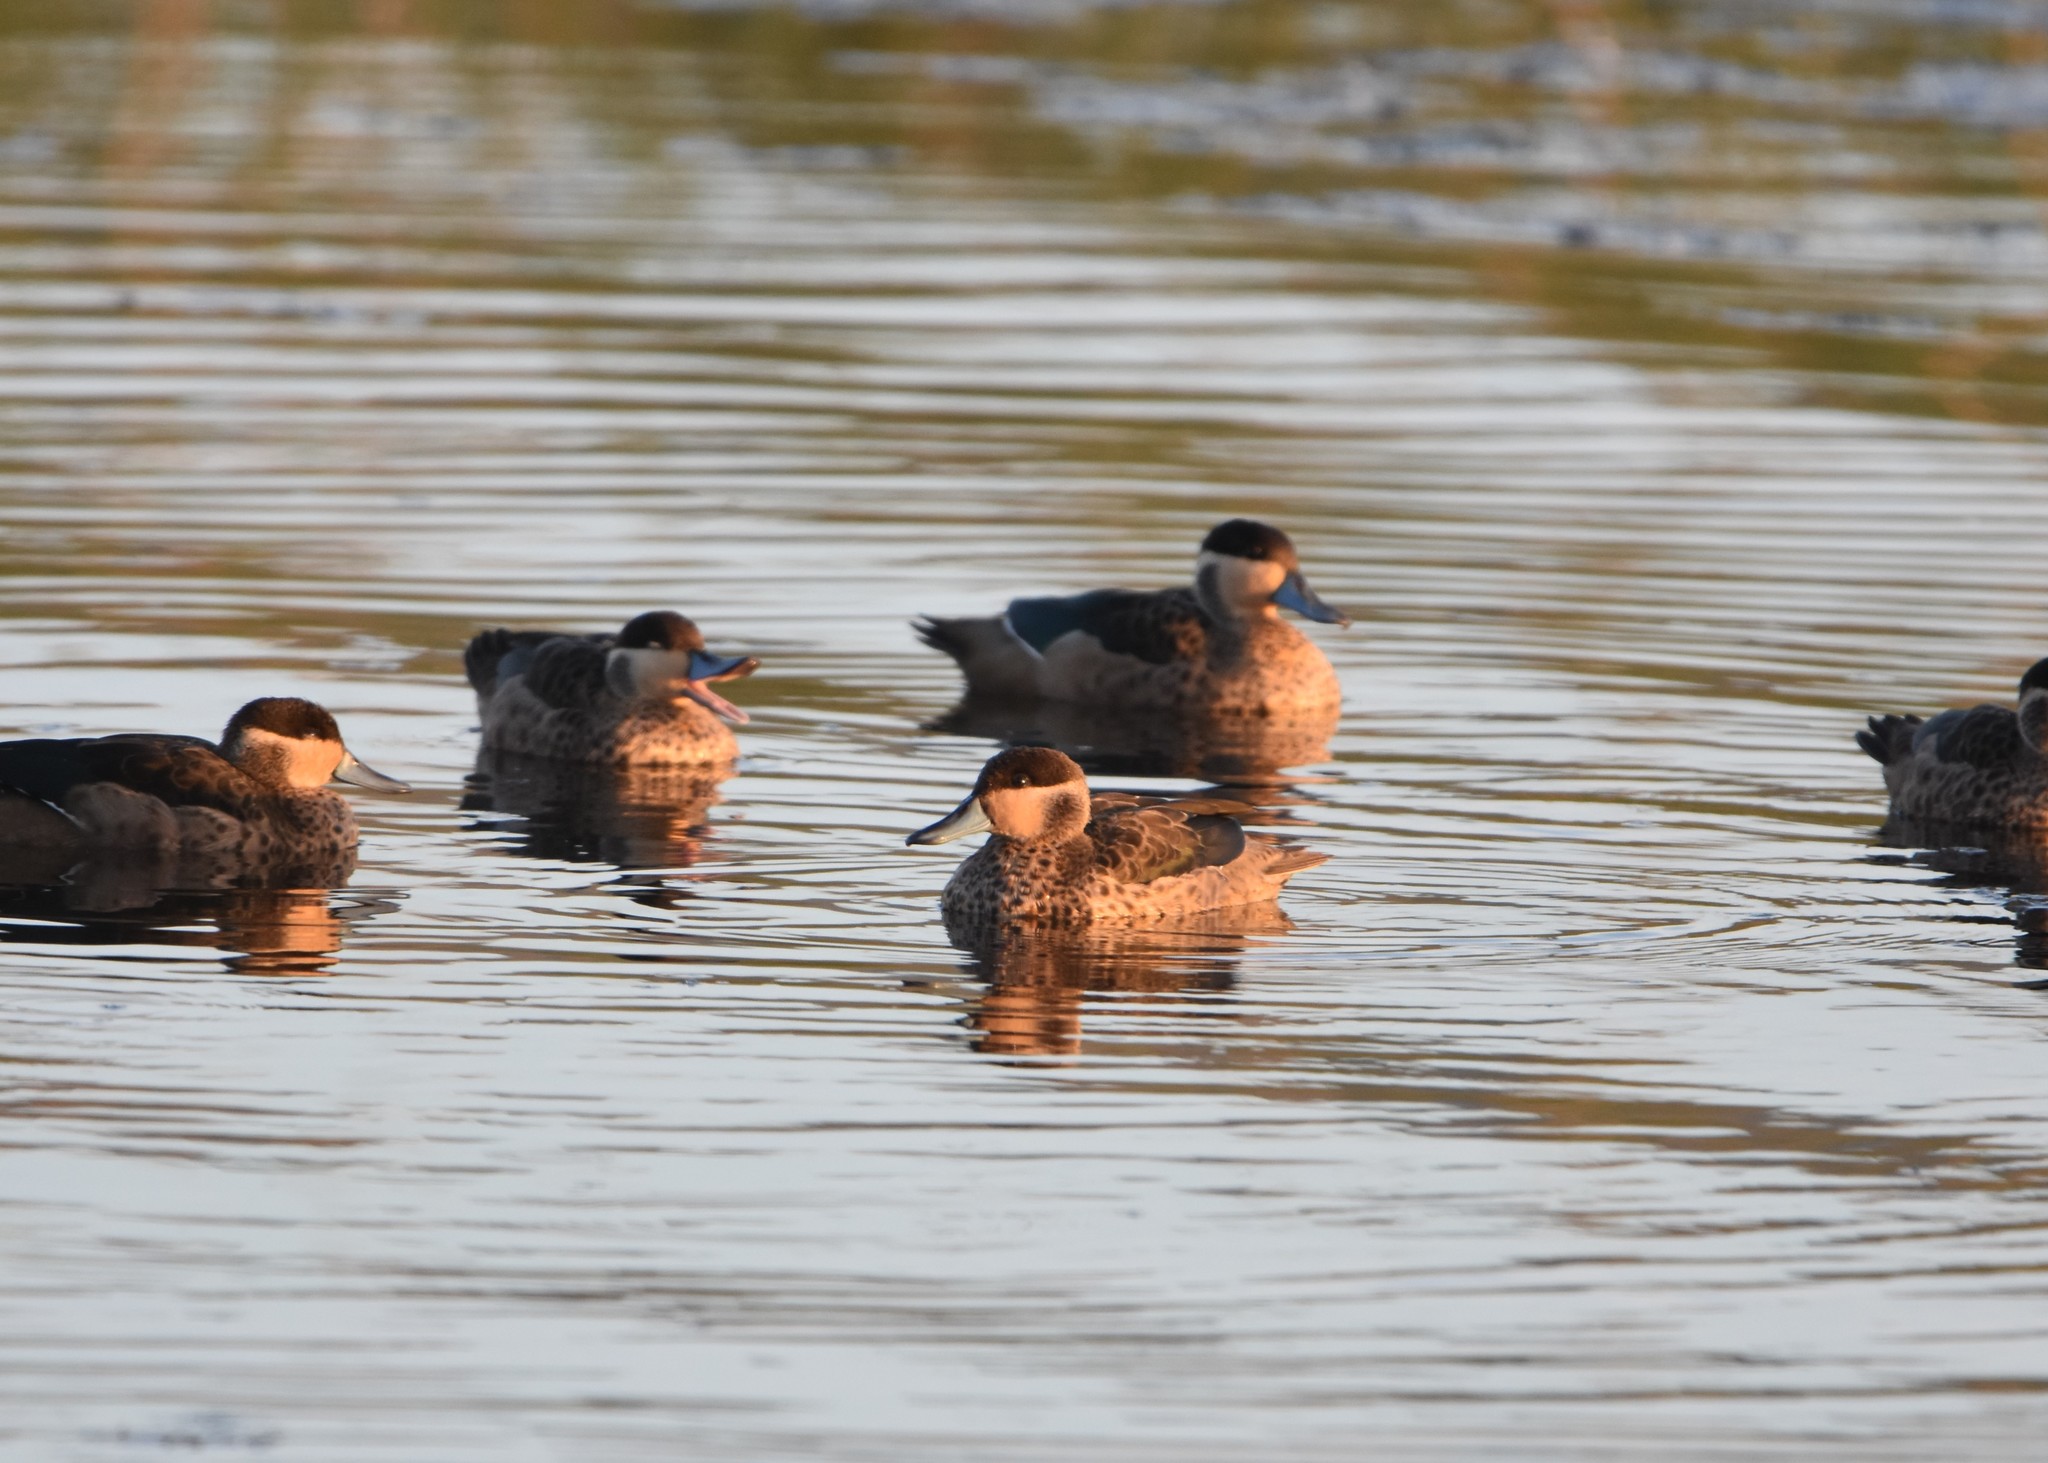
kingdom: Animalia
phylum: Chordata
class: Aves
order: Anseriformes
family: Anatidae
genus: Spatula
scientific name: Spatula hottentota
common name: Blue-billed teal
